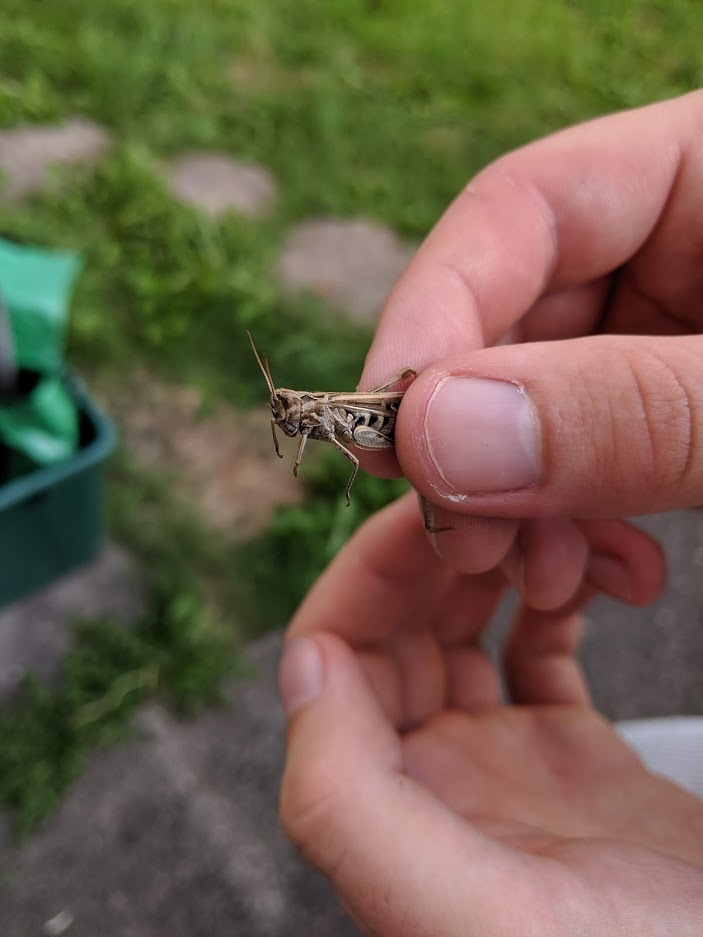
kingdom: Animalia
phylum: Arthropoda
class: Insecta
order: Orthoptera
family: Acrididae
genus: Chorthippus
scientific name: Chorthippus brunneus
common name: Field grasshopper
